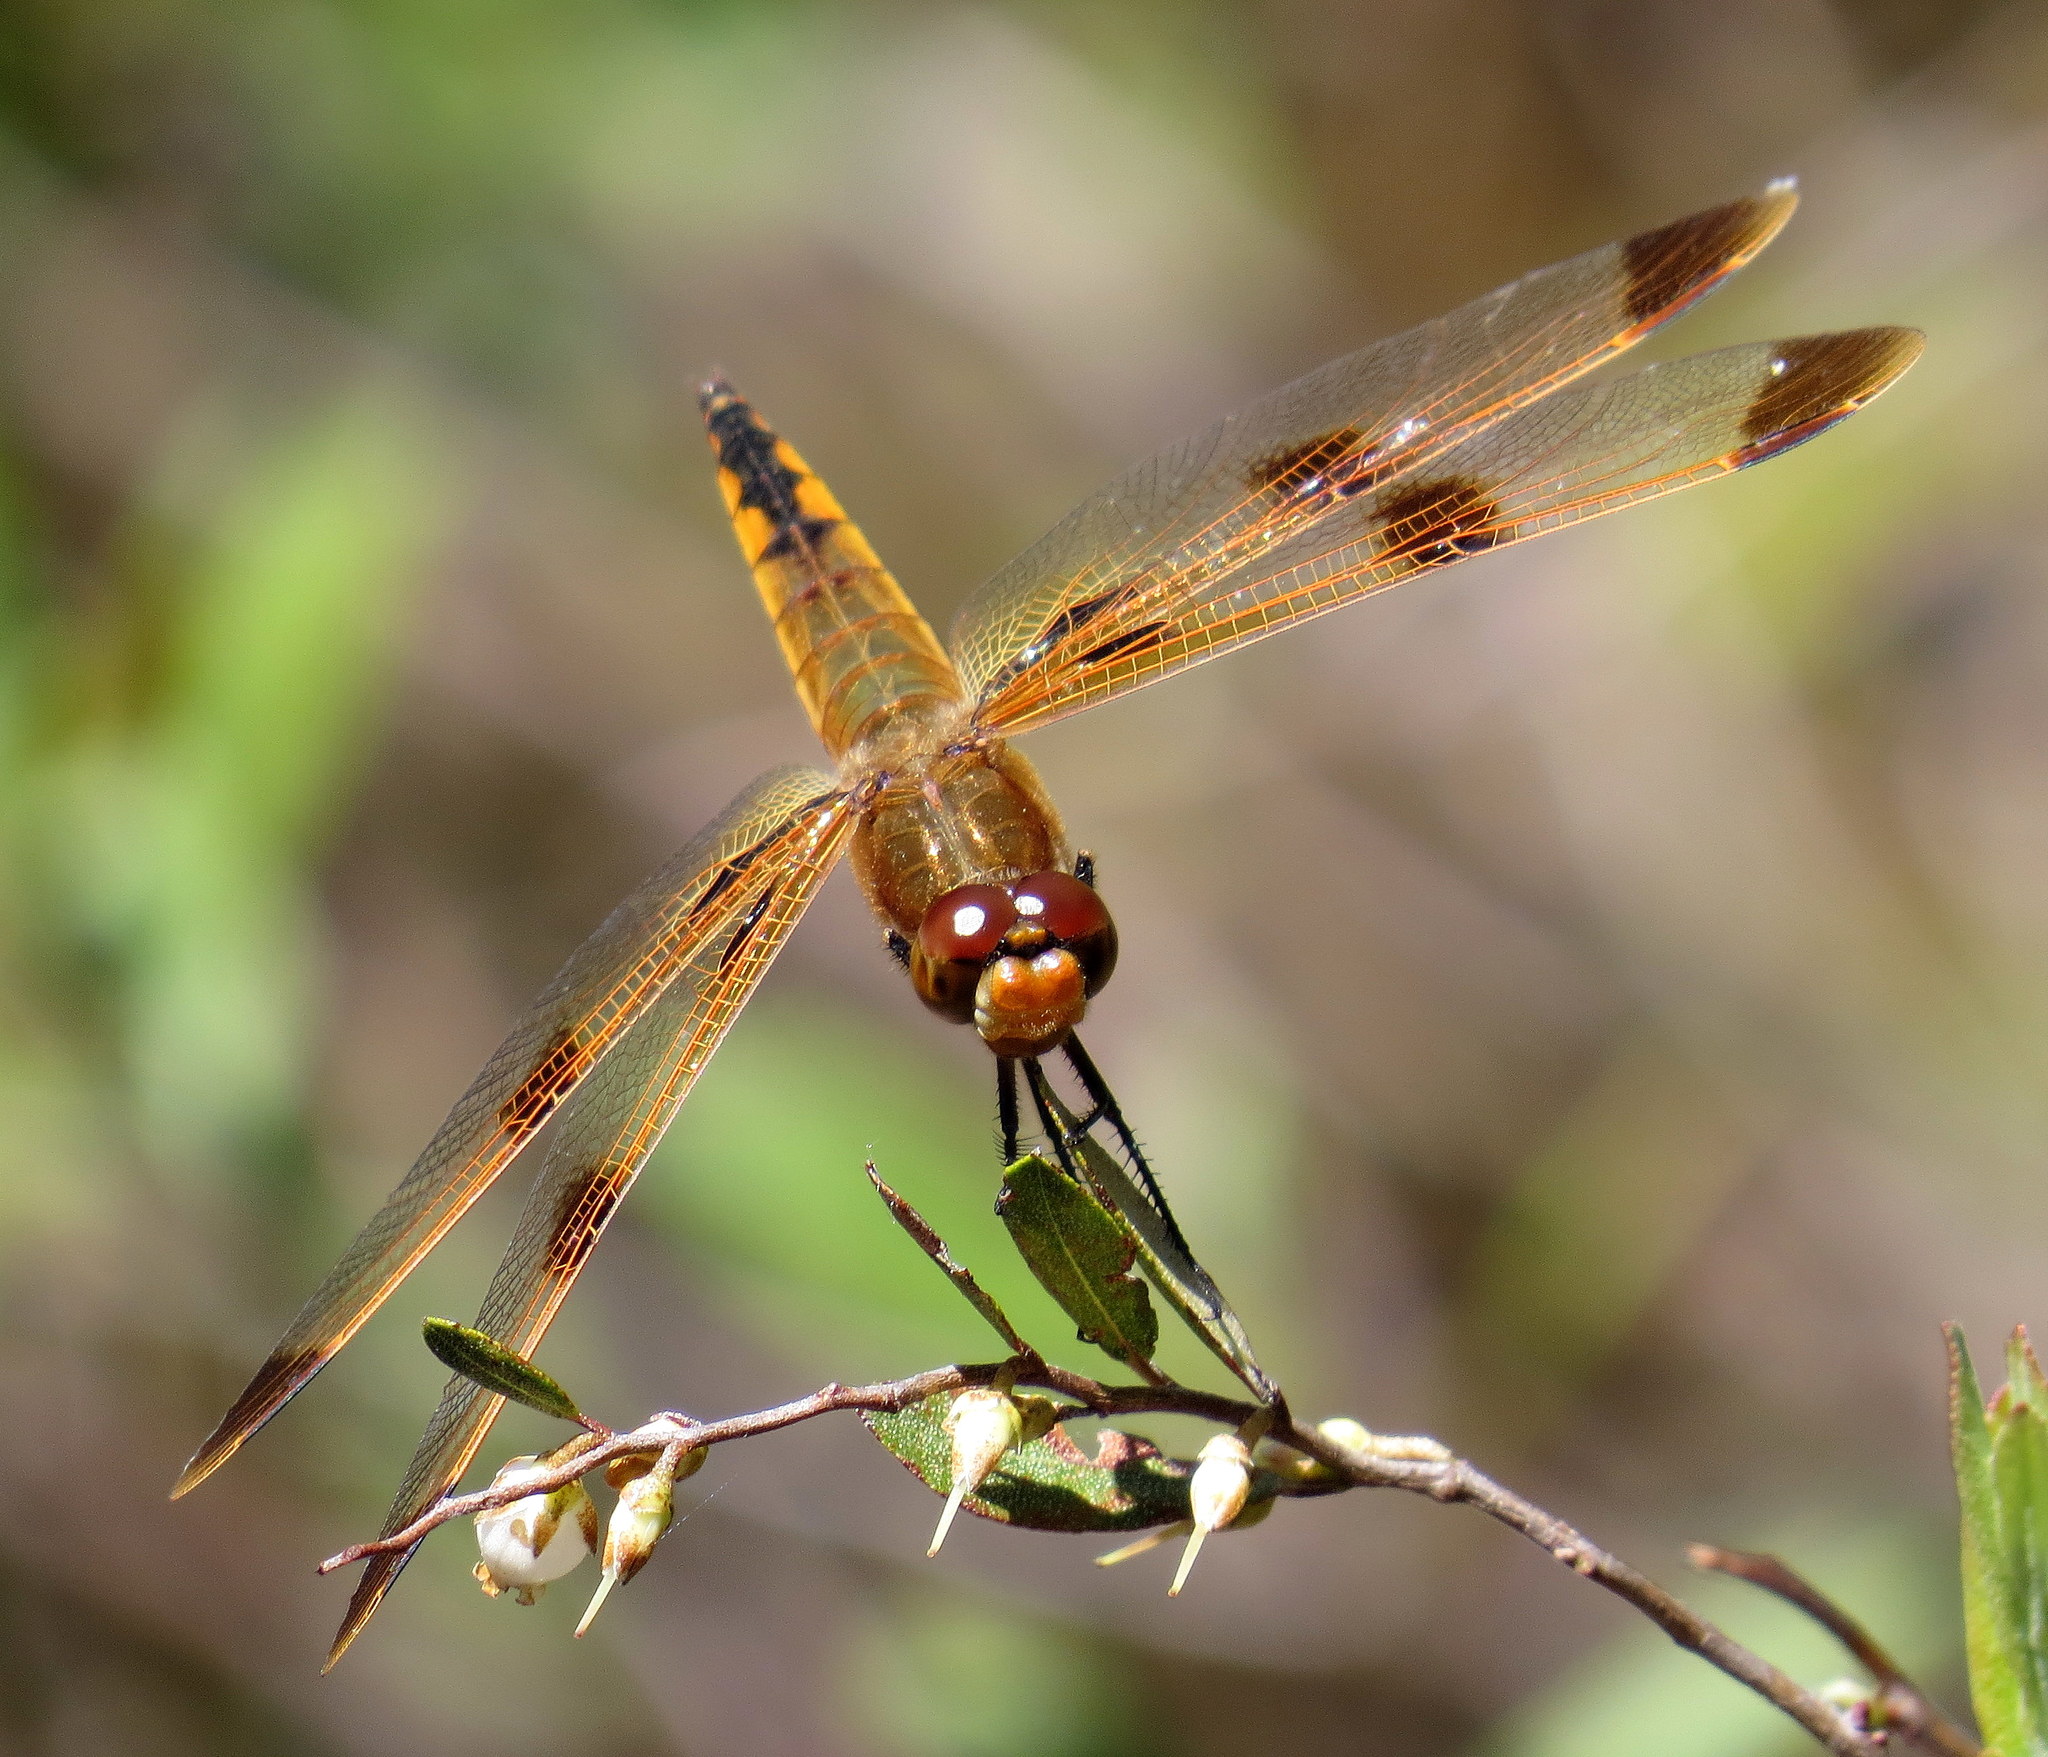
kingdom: Animalia
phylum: Arthropoda
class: Insecta
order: Odonata
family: Libellulidae
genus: Libellula
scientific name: Libellula semifasciata
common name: Painted skimmer
